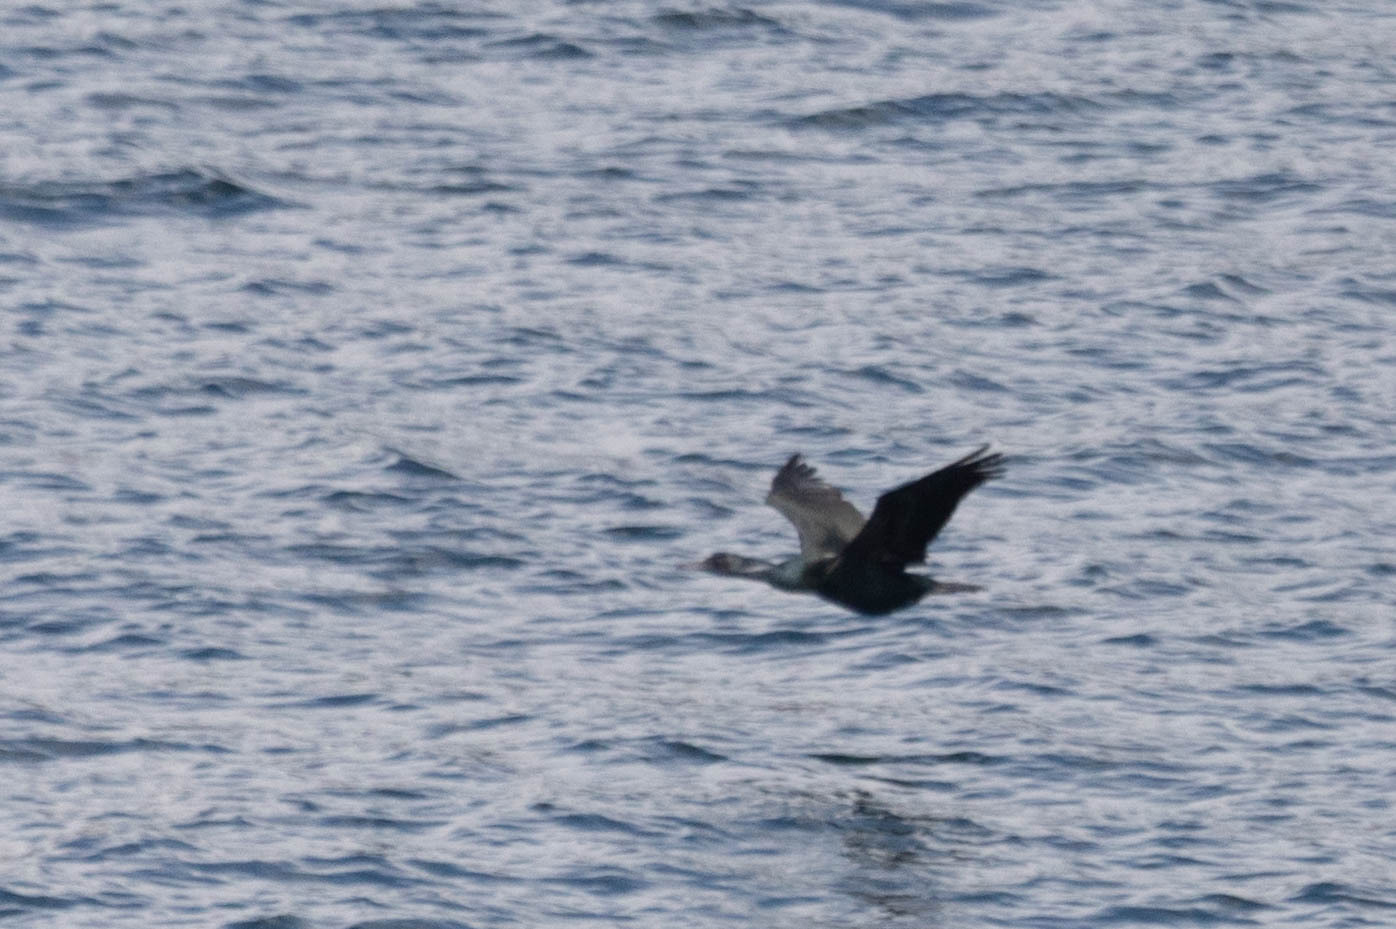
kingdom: Animalia
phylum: Chordata
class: Aves
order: Suliformes
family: Phalacrocoracidae
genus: Phalacrocorax
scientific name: Phalacrocorax pelagicus
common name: Pelagic cormorant
